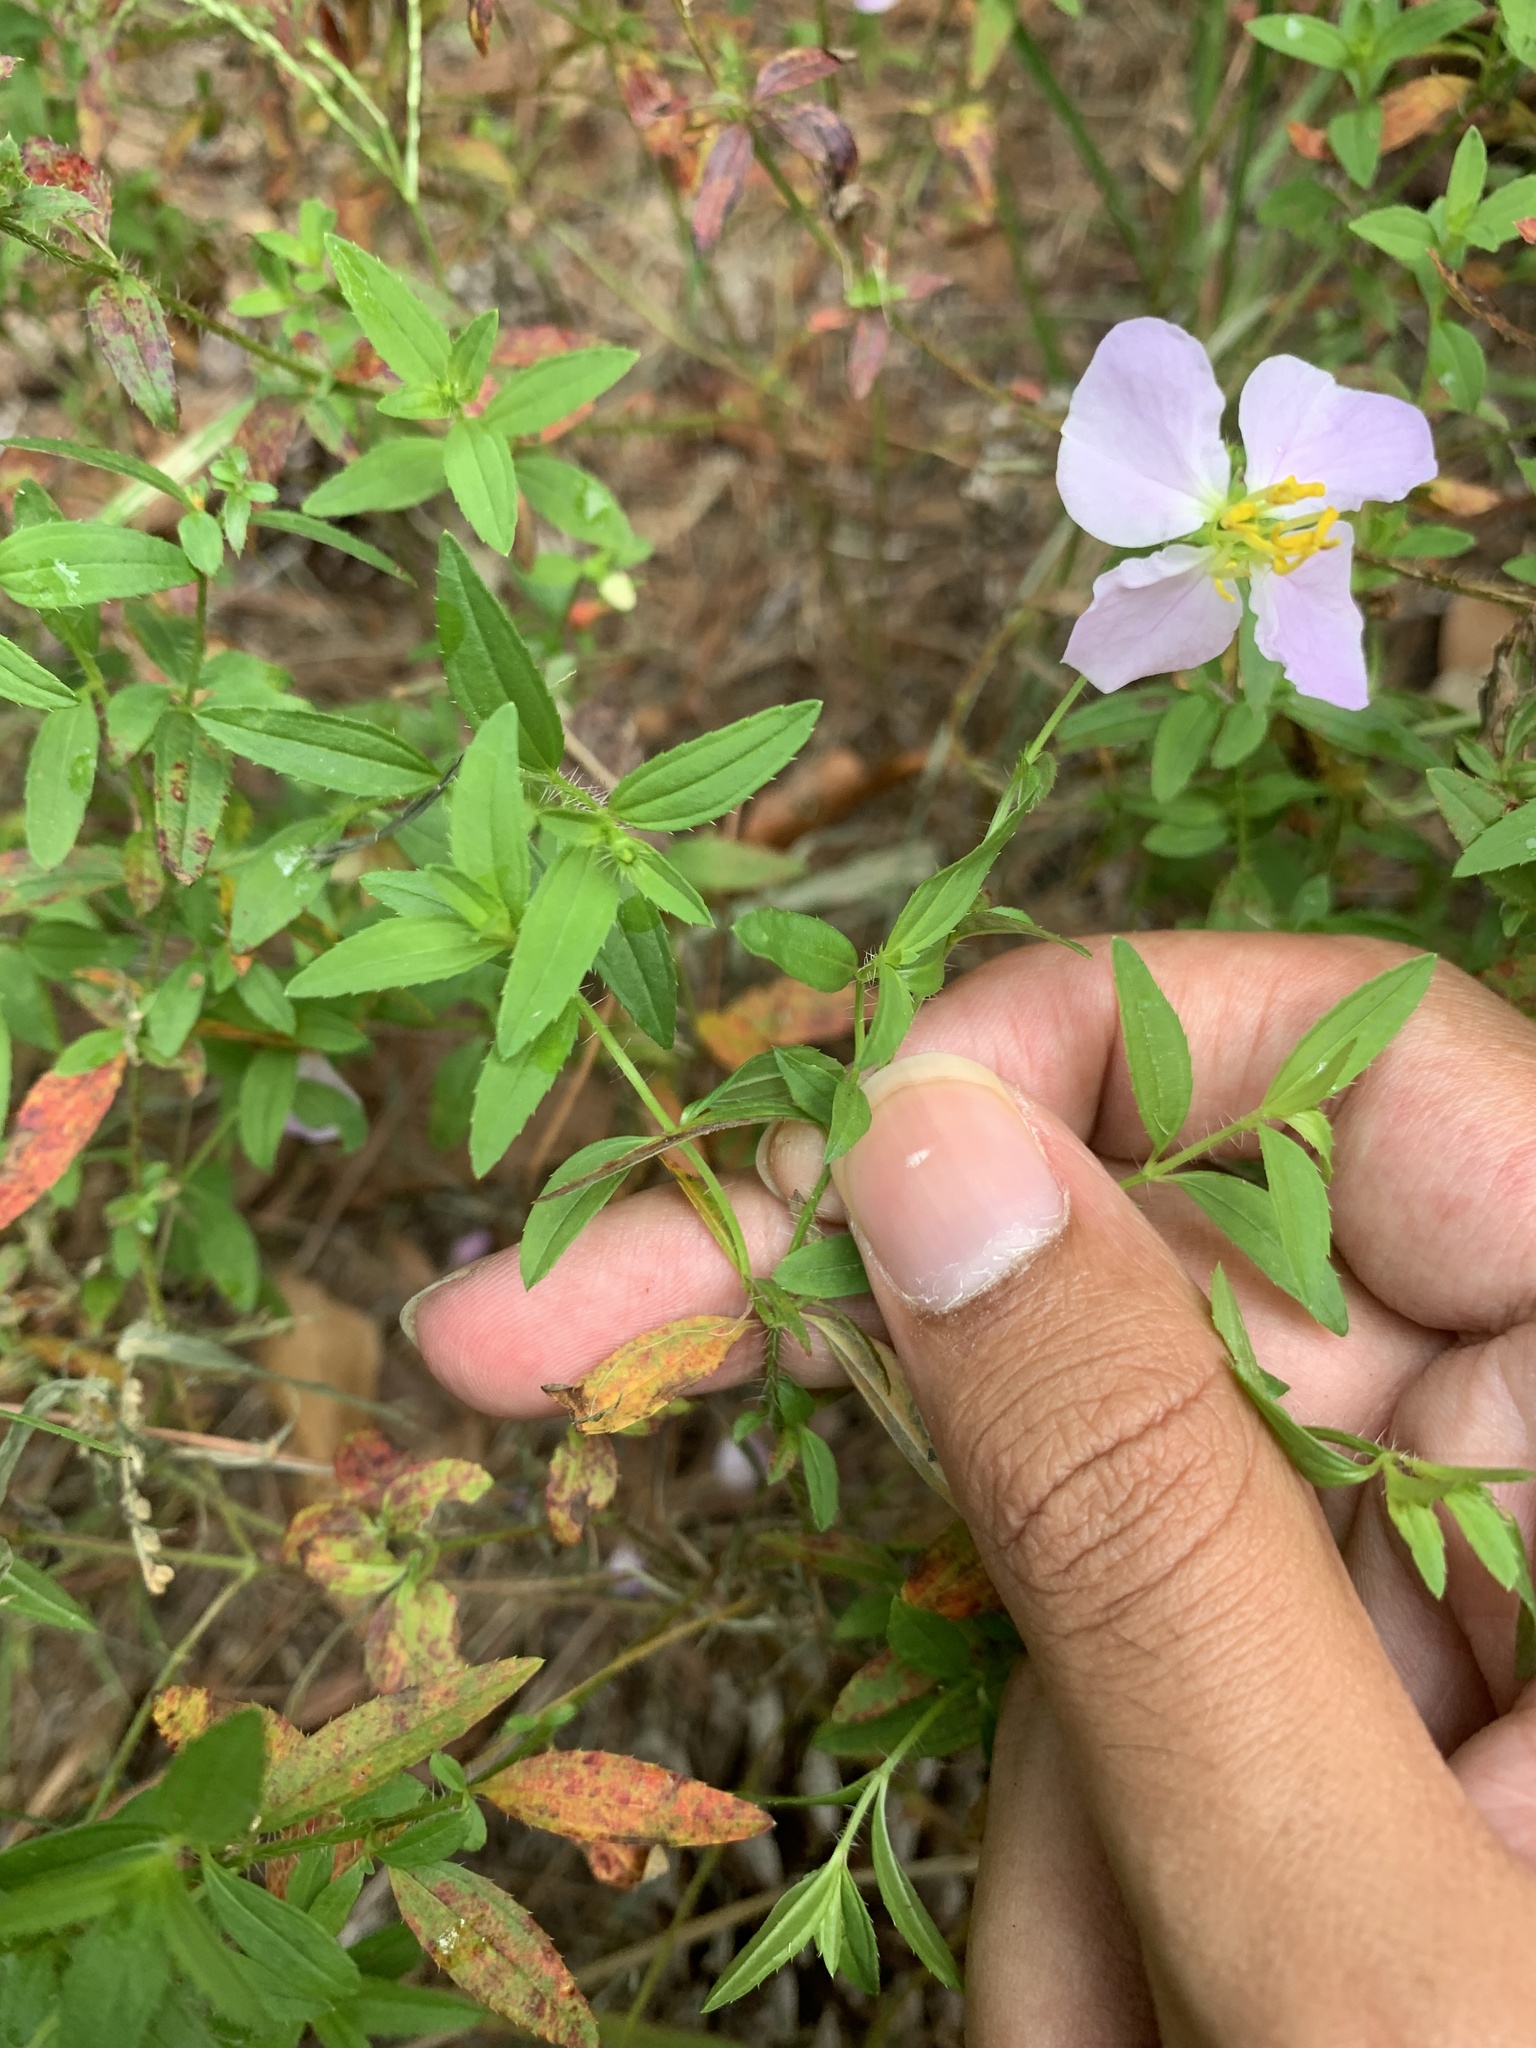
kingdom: Plantae
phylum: Tracheophyta
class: Magnoliopsida
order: Myrtales
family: Melastomataceae
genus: Rhexia
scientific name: Rhexia mariana
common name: Dull meadow-pitcher
